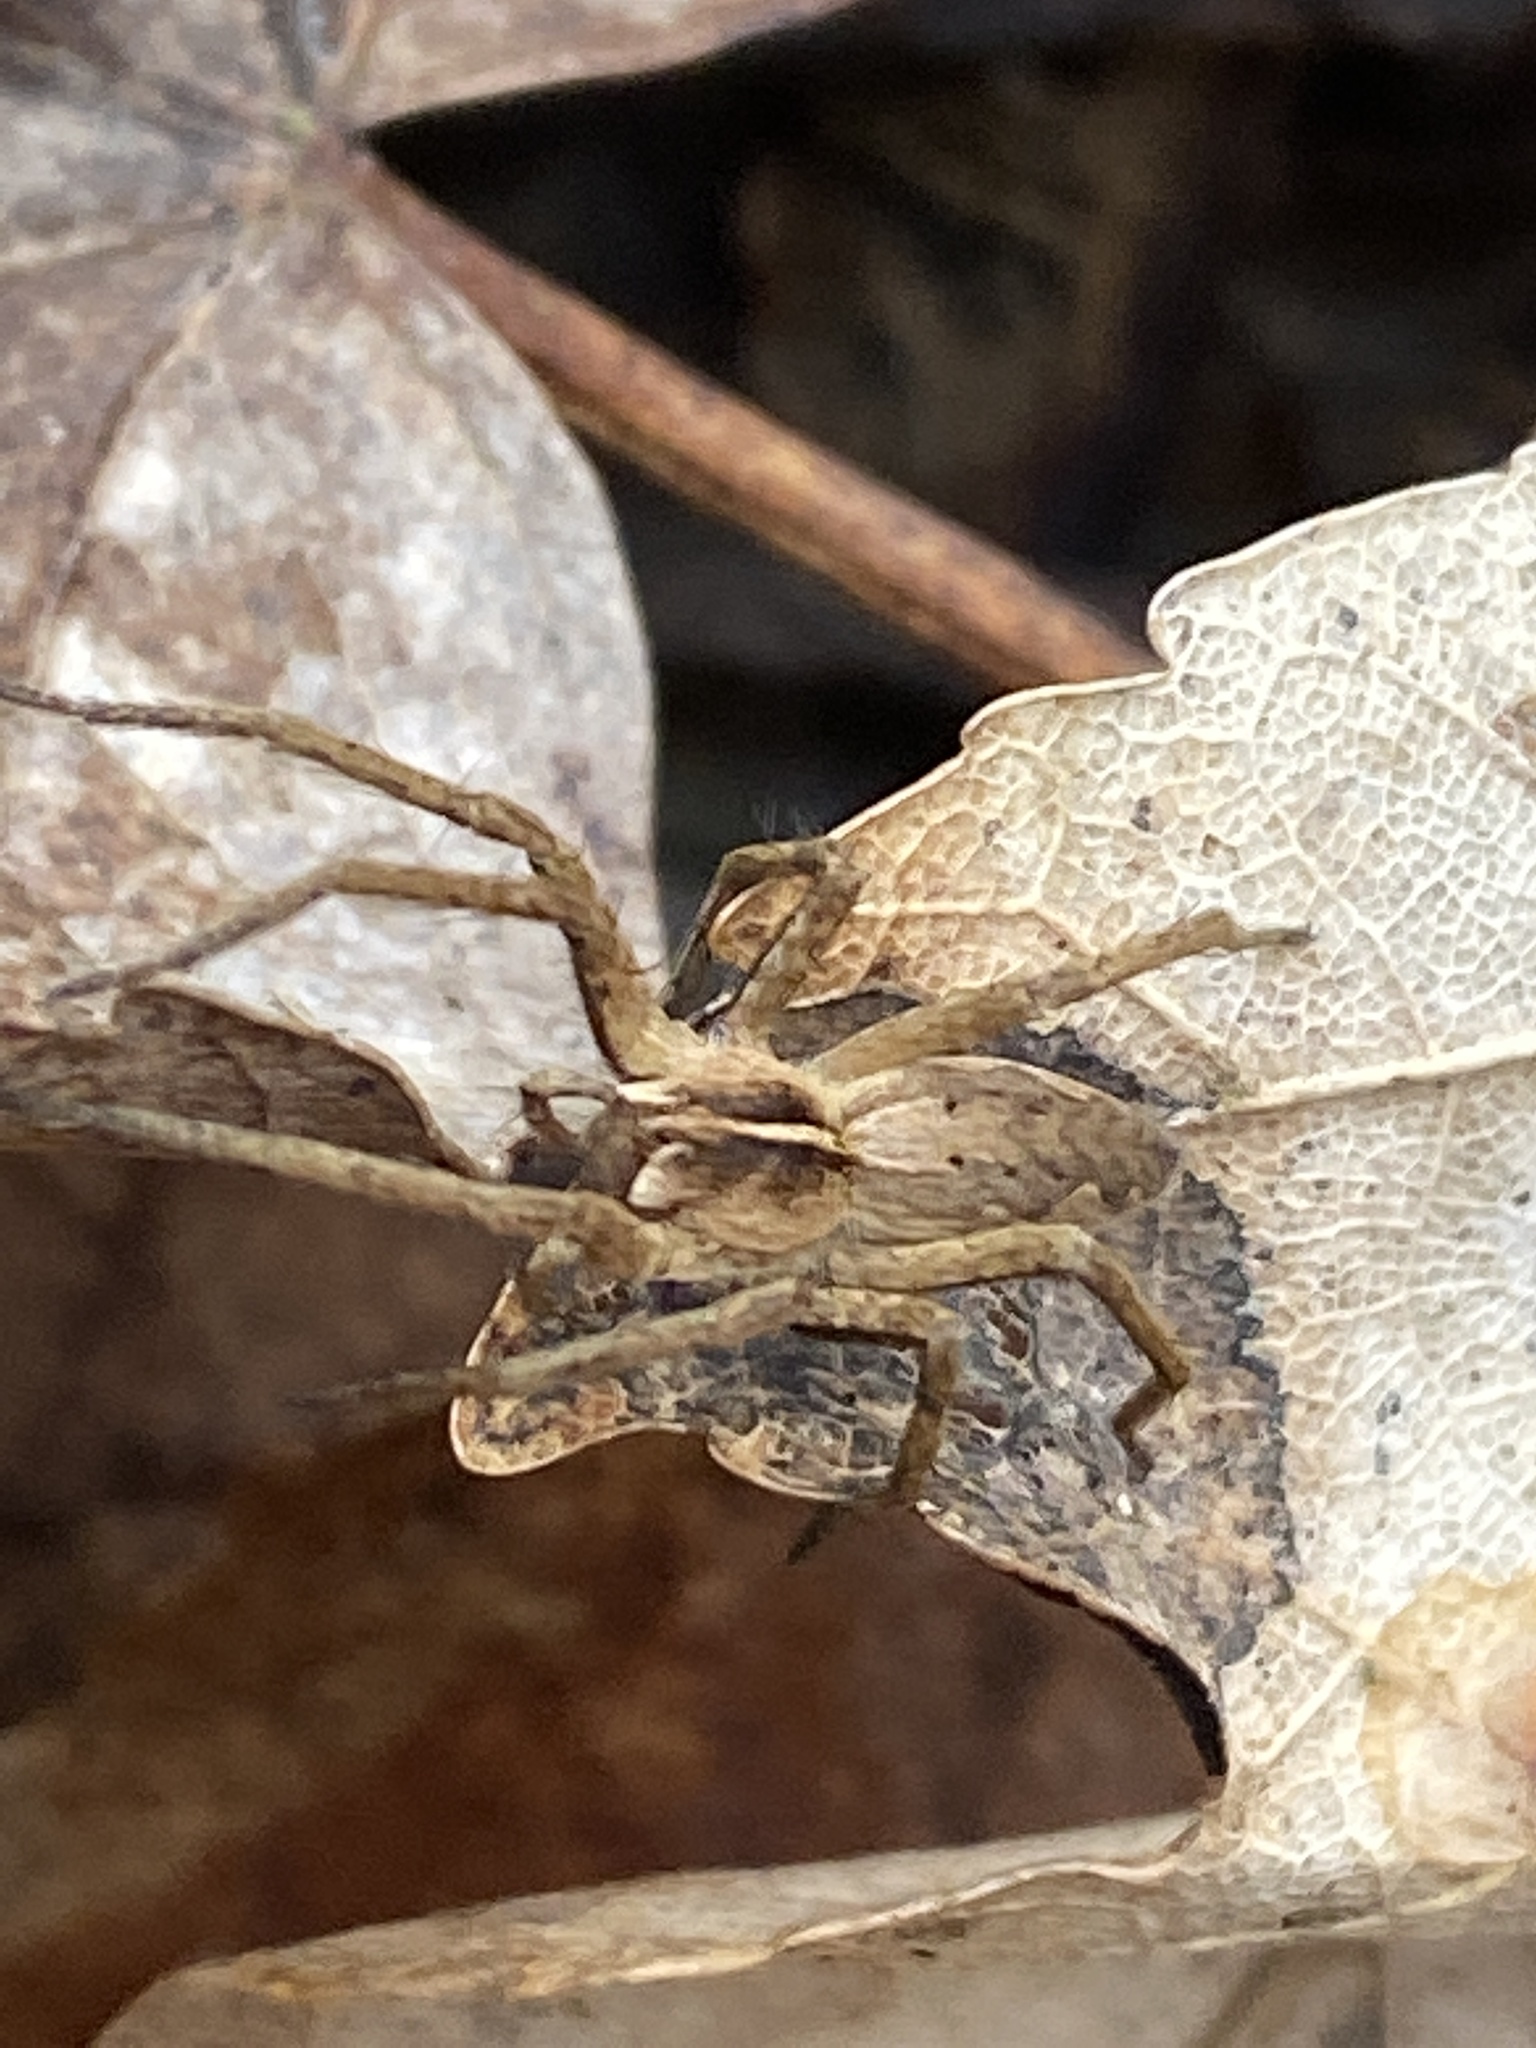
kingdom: Animalia
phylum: Arthropoda
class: Arachnida
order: Araneae
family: Pisauridae
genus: Pisaura
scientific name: Pisaura mirabilis
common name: Tent spider
